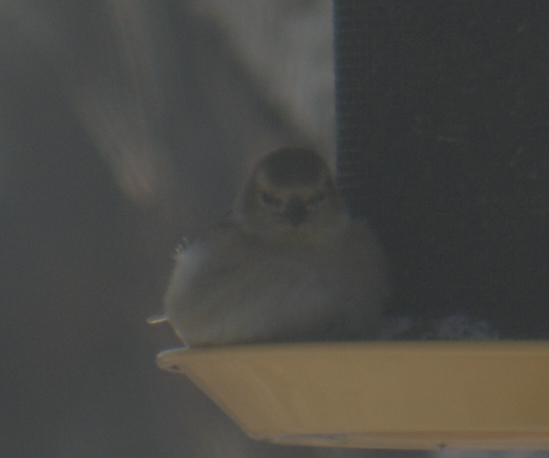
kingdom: Animalia
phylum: Chordata
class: Aves
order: Passeriformes
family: Fringillidae
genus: Spinus
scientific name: Spinus tristis
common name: American goldfinch
